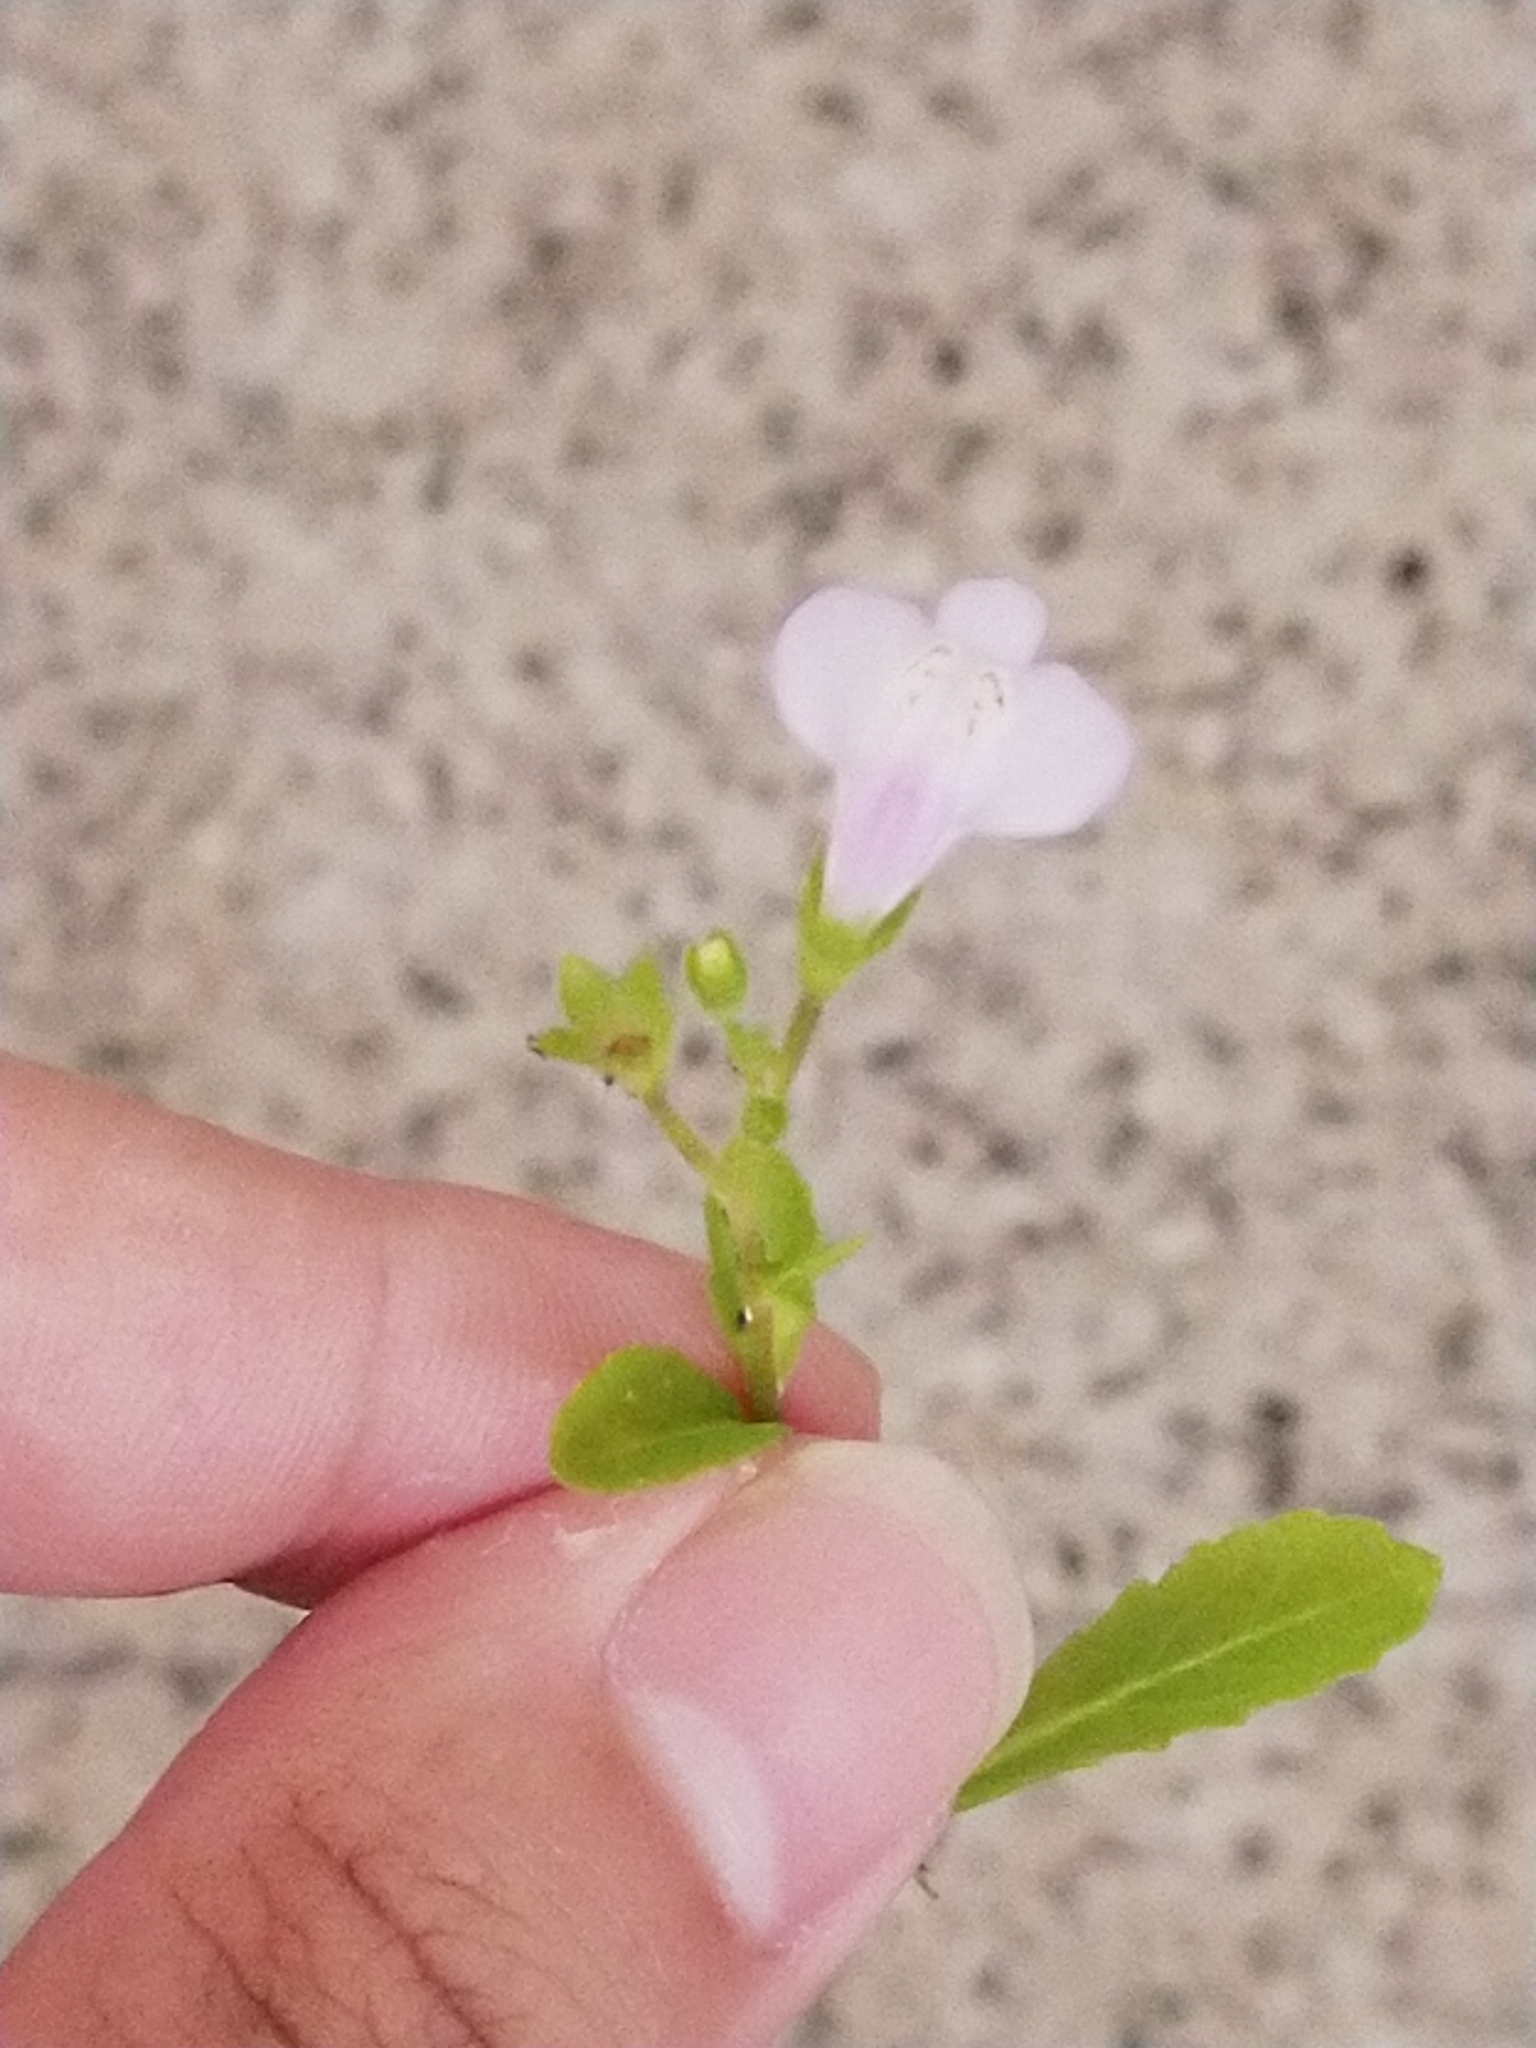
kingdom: Plantae
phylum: Tracheophyta
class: Magnoliopsida
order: Lamiales
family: Mazaceae
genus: Mazus
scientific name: Mazus pumilus
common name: Japanese mazus
